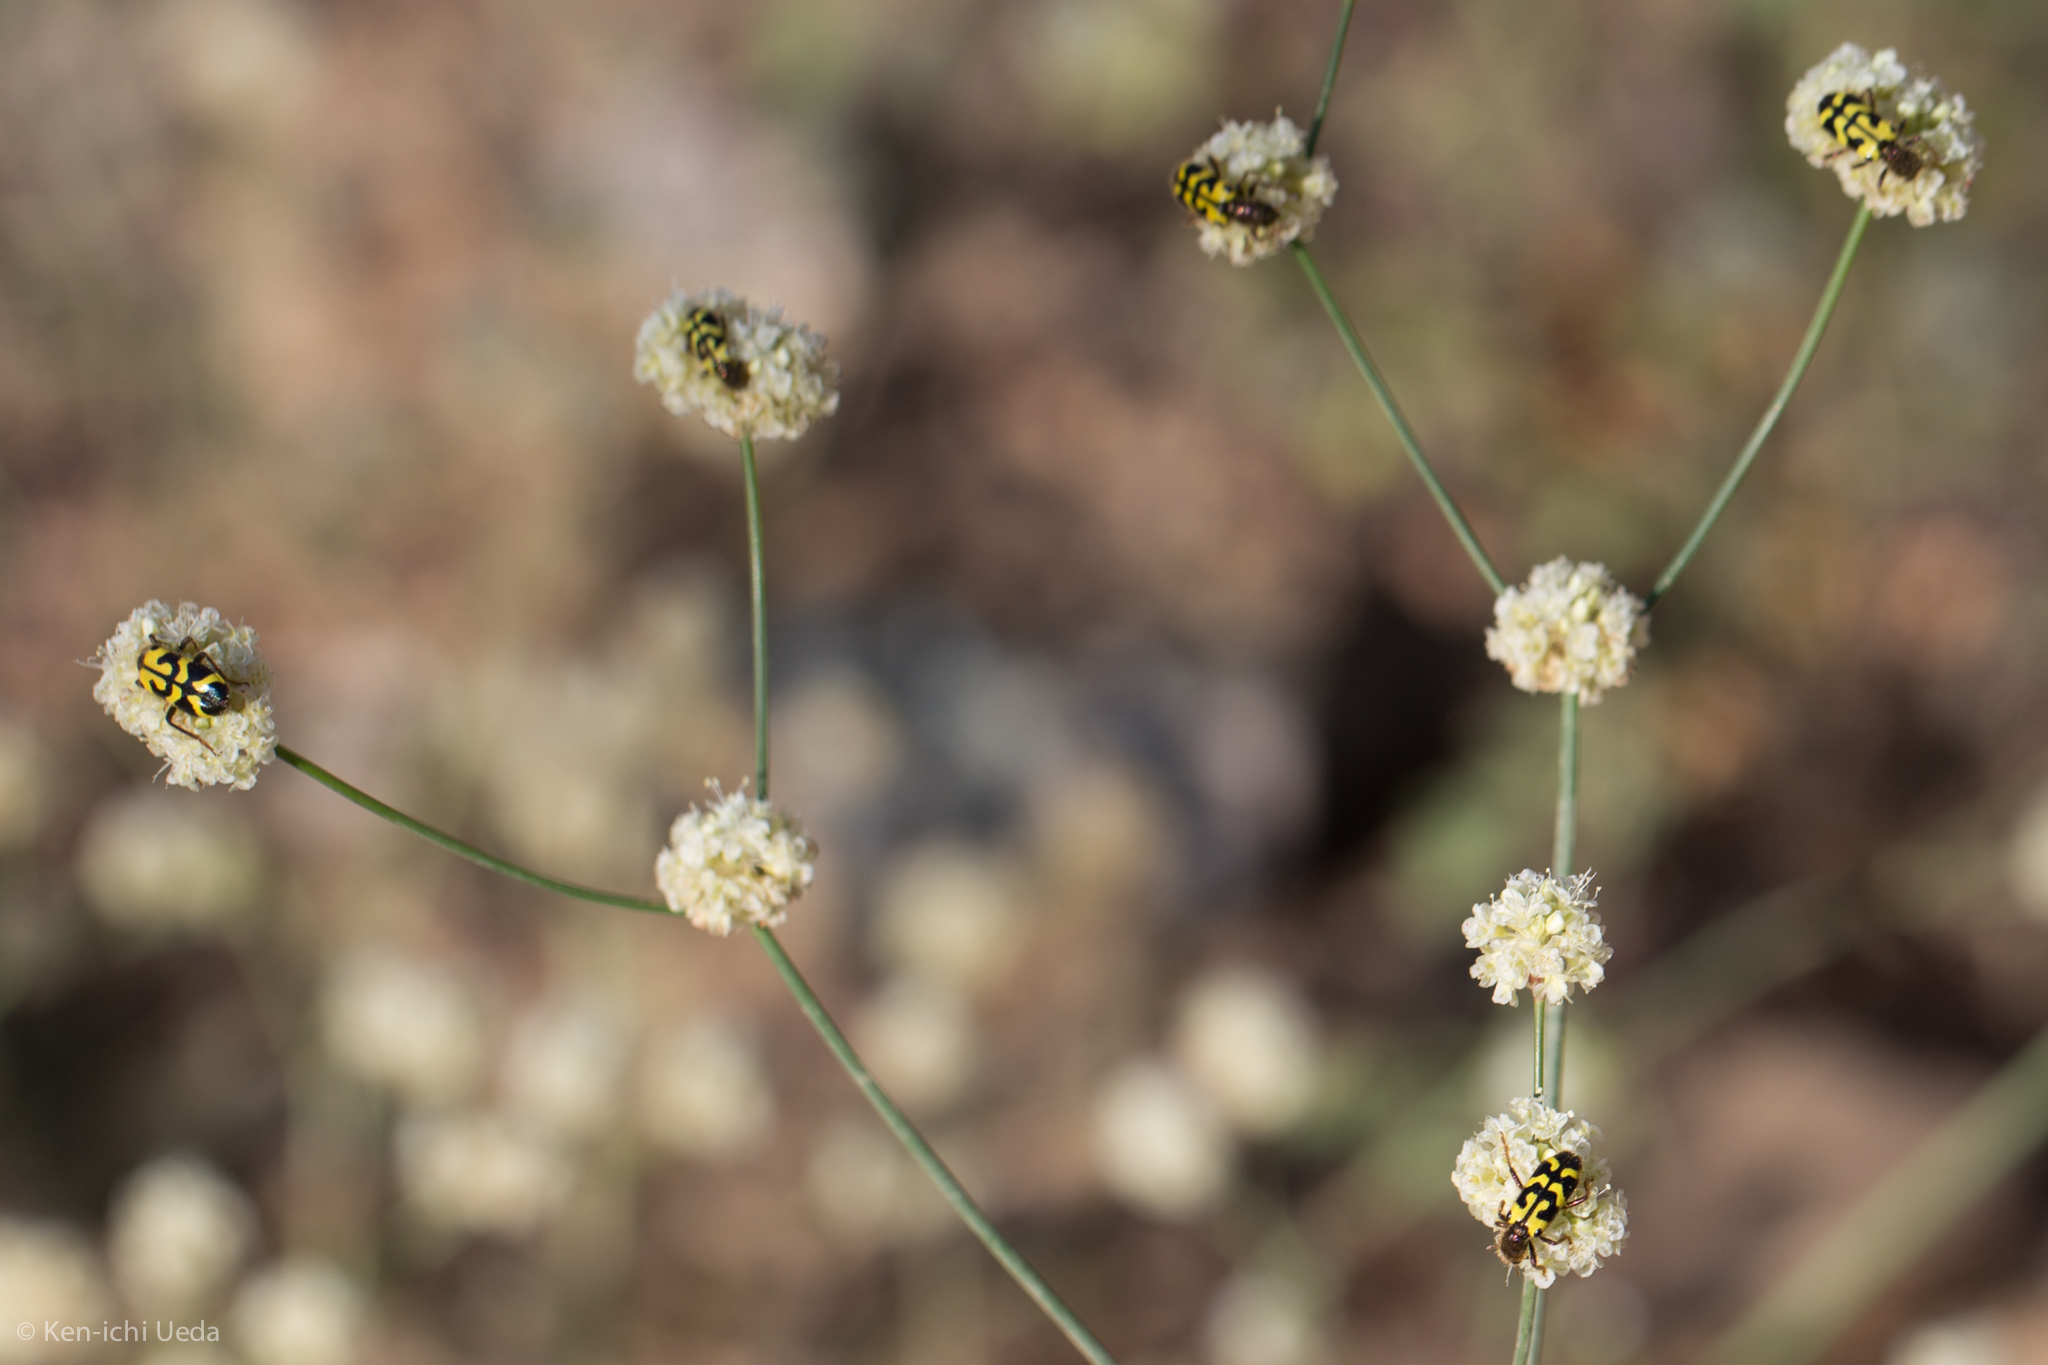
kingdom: Animalia
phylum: Arthropoda
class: Insecta
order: Coleoptera
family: Cleridae
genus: Trichodes
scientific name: Trichodes ornatus
